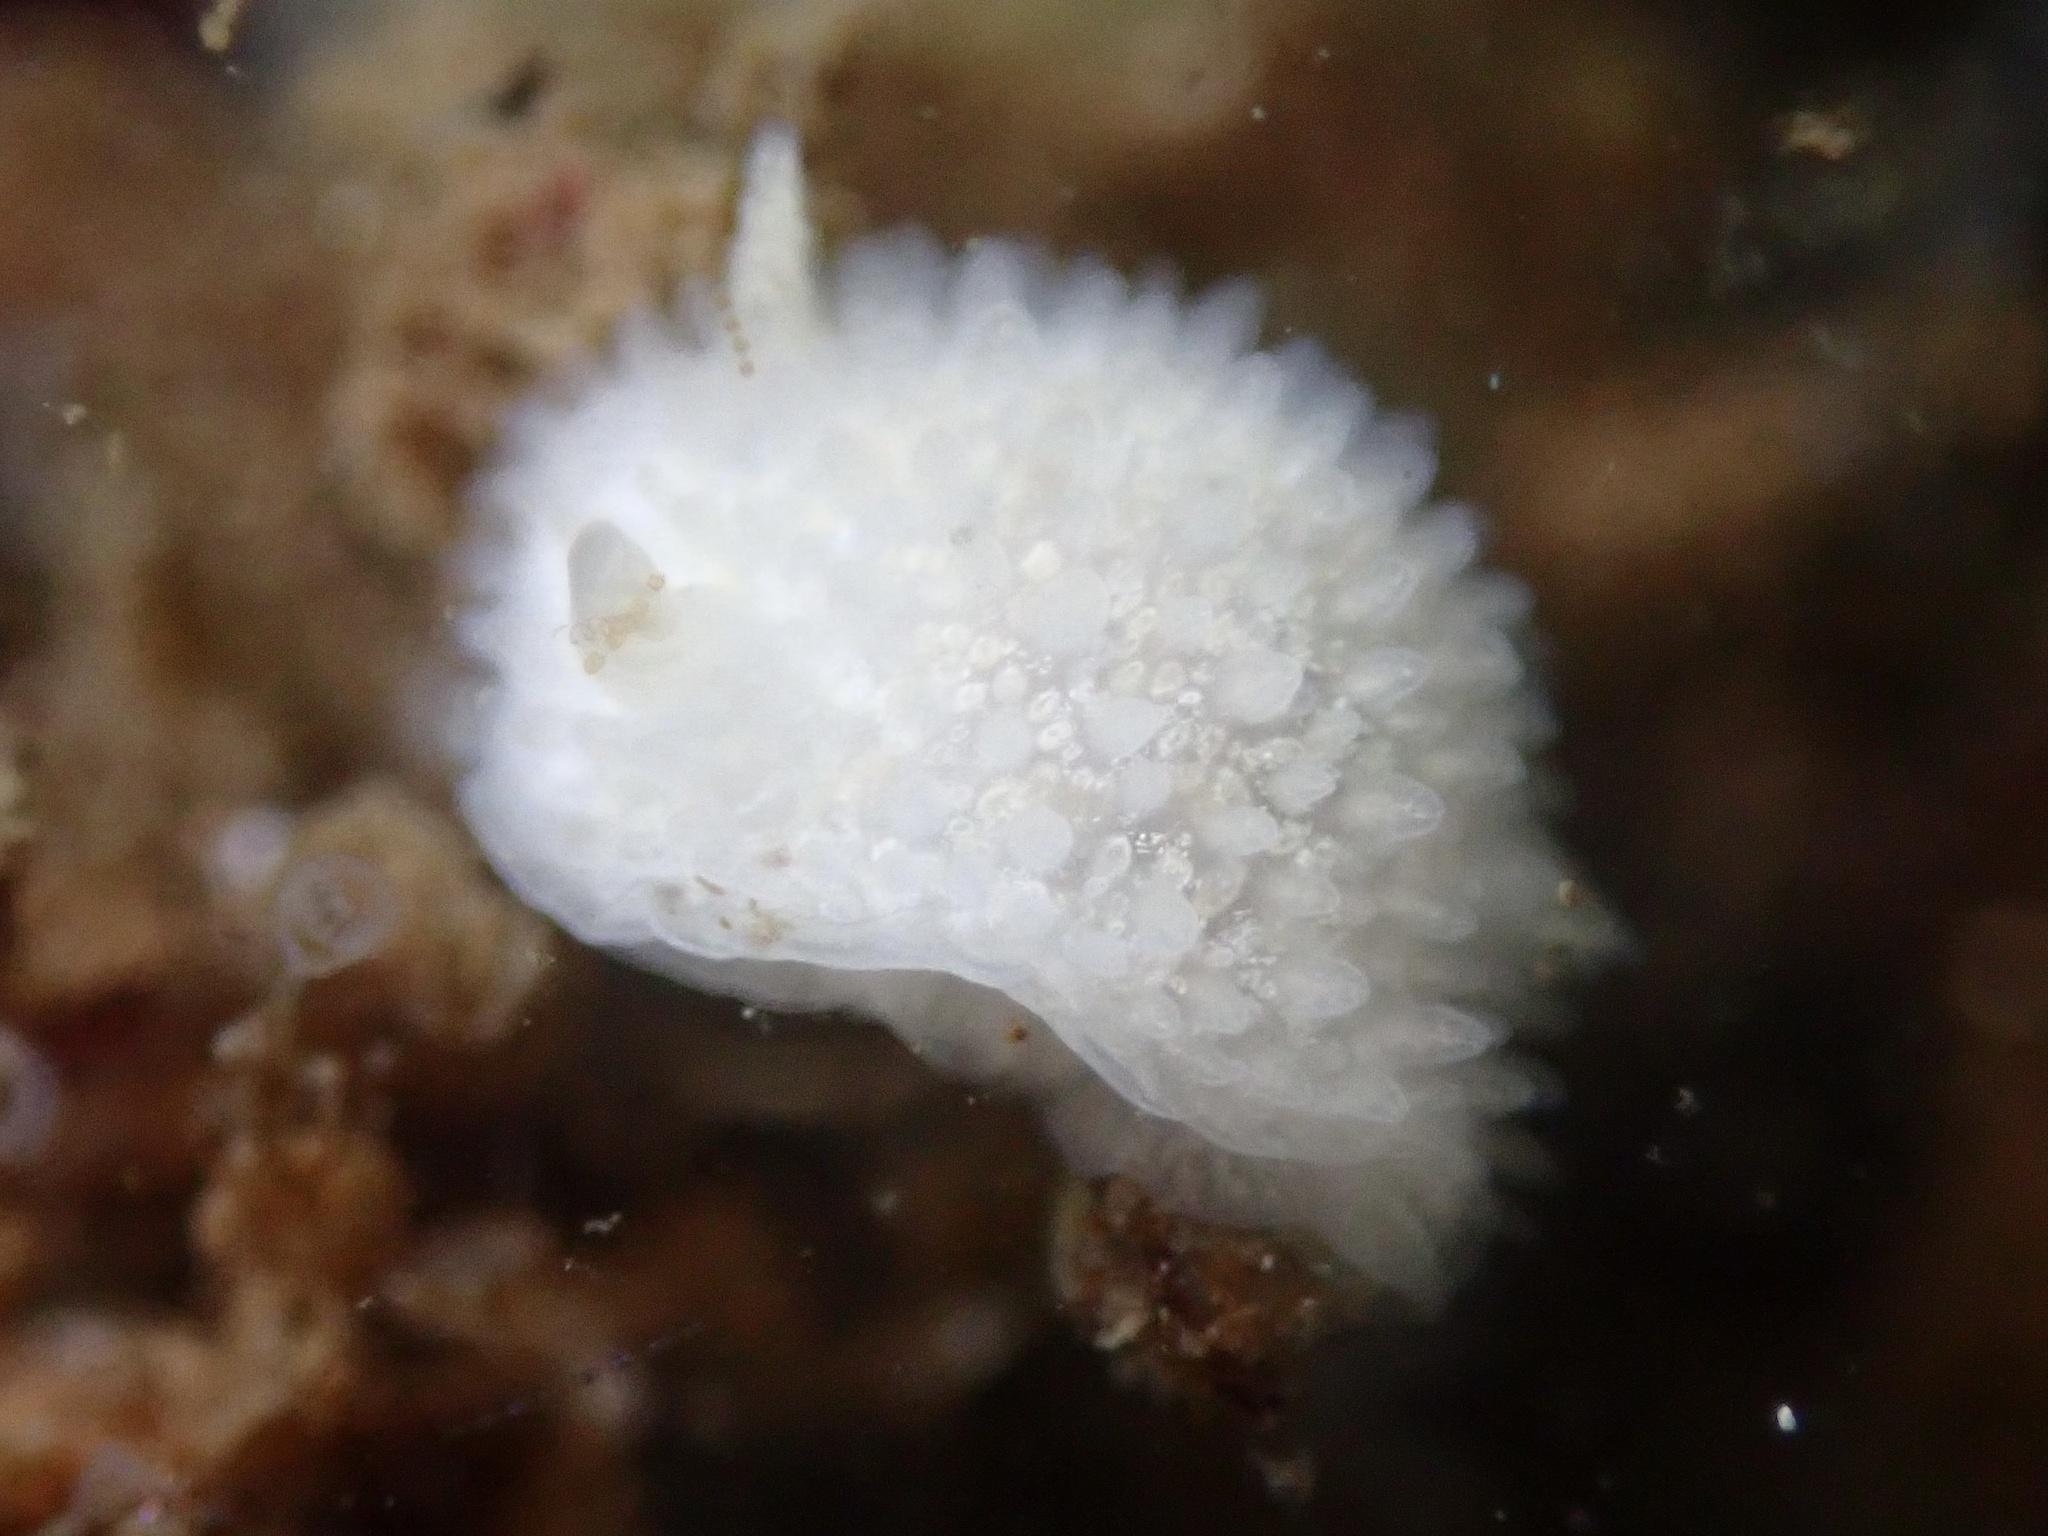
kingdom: Animalia
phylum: Mollusca
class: Gastropoda
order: Nudibranchia
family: Calycidorididae
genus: Diaphorodoris
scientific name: Diaphorodoris lirulatocauda
